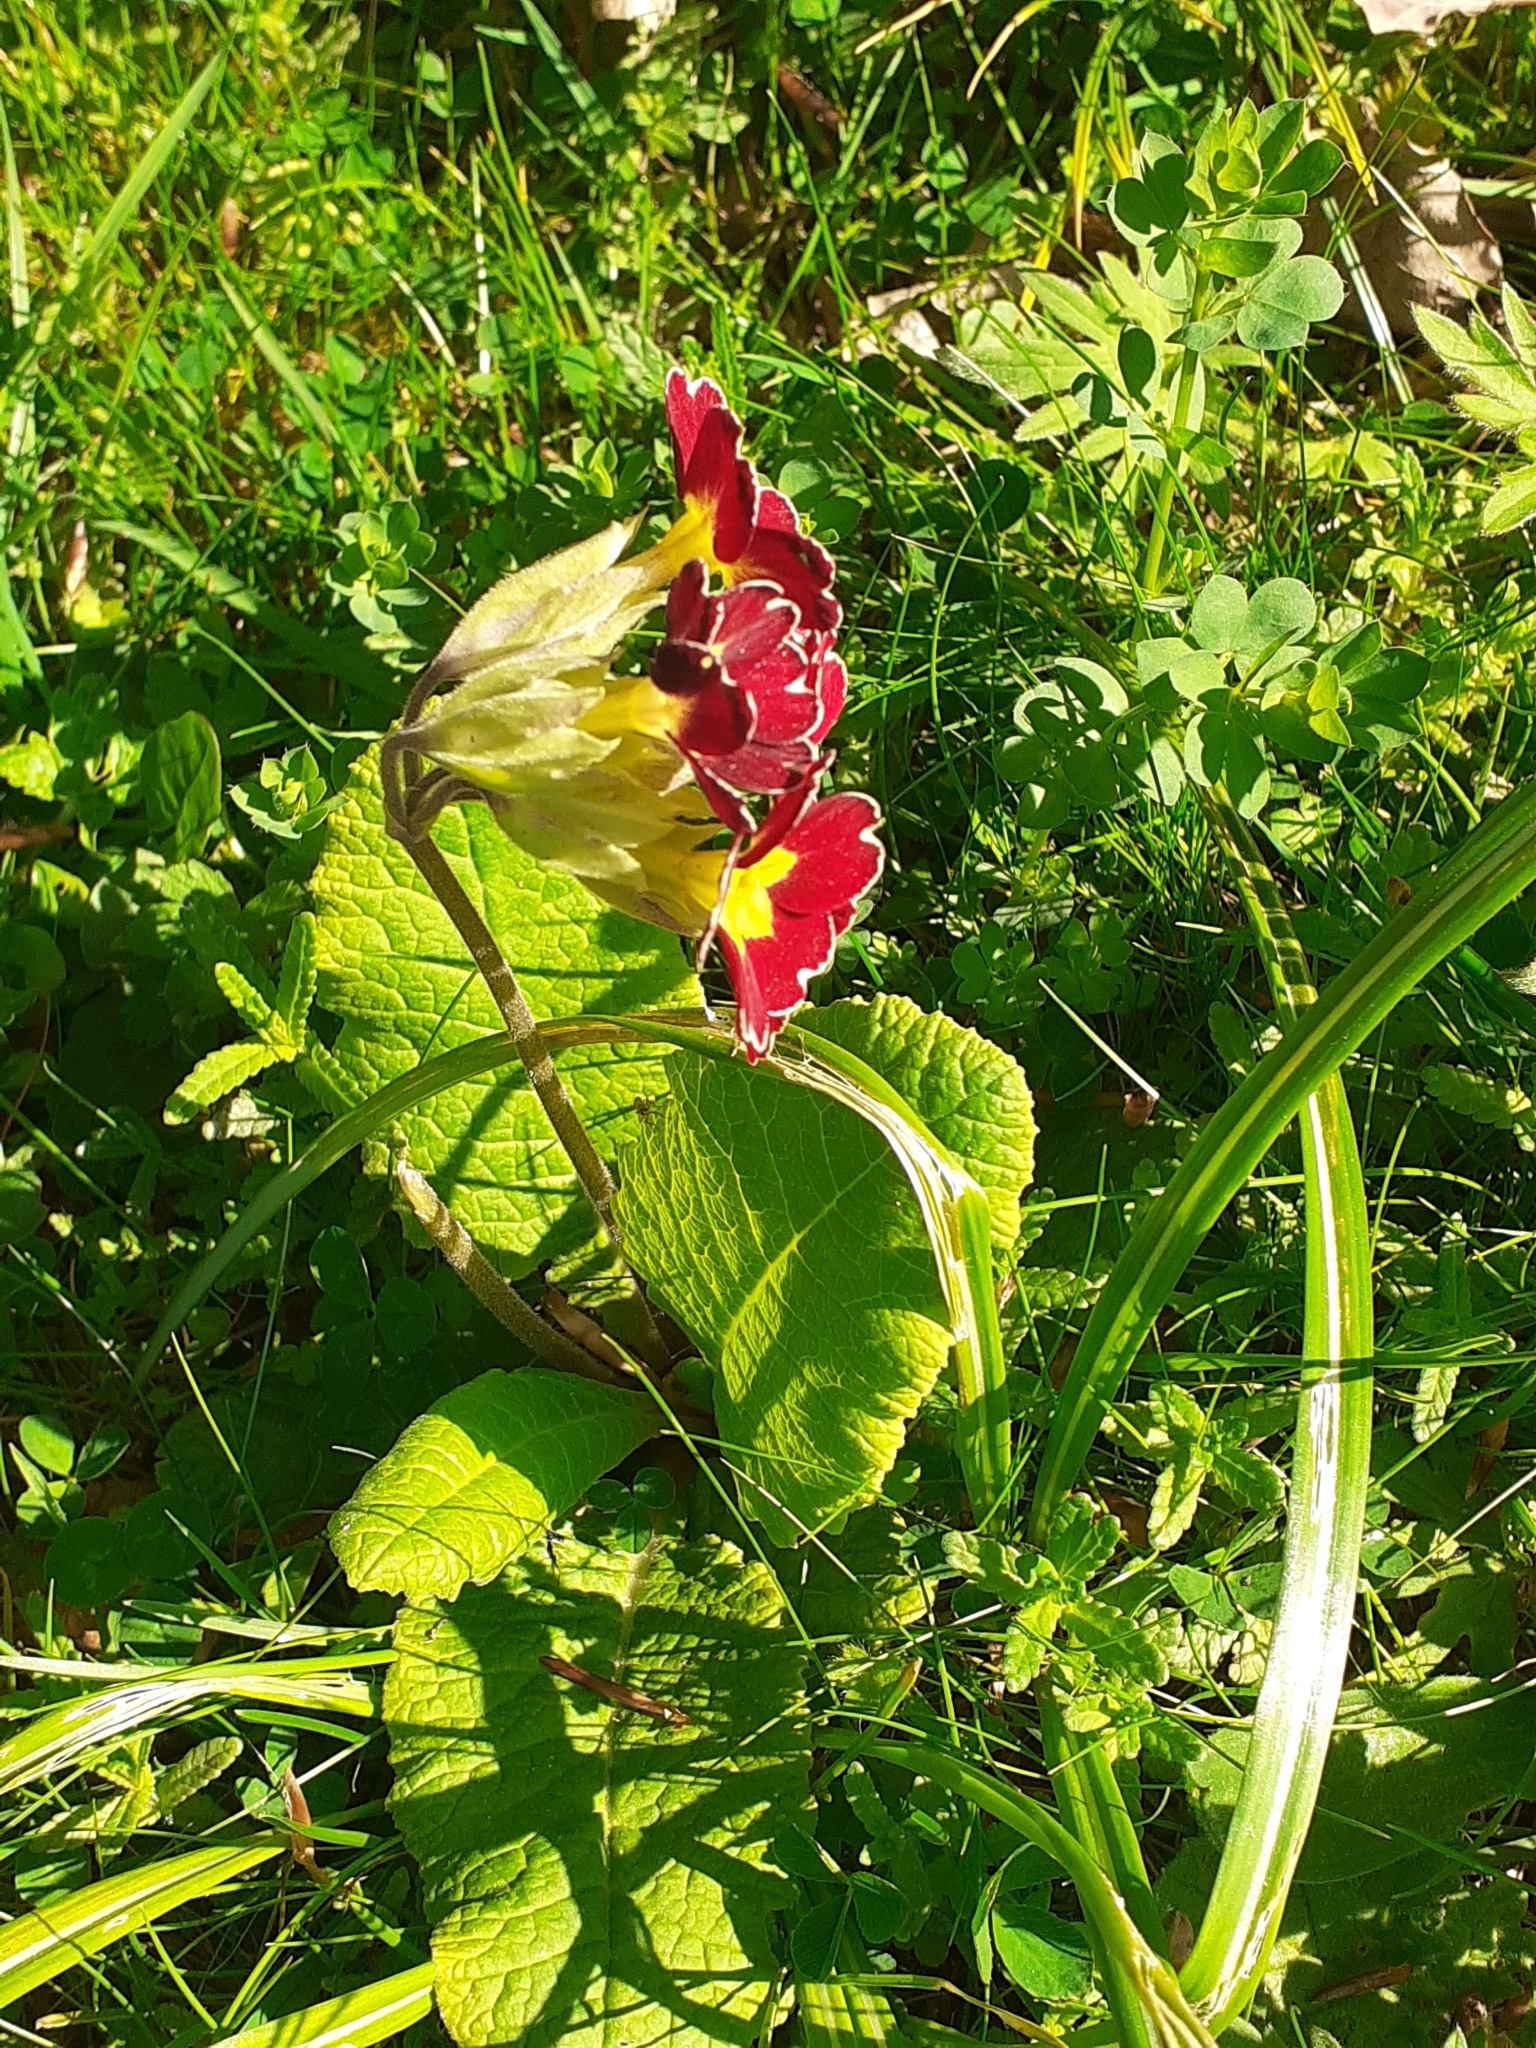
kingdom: Plantae
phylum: Tracheophyta
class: Magnoliopsida
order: Ericales
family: Primulaceae
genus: Primula
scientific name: Primula polyantha
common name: False oxlip
